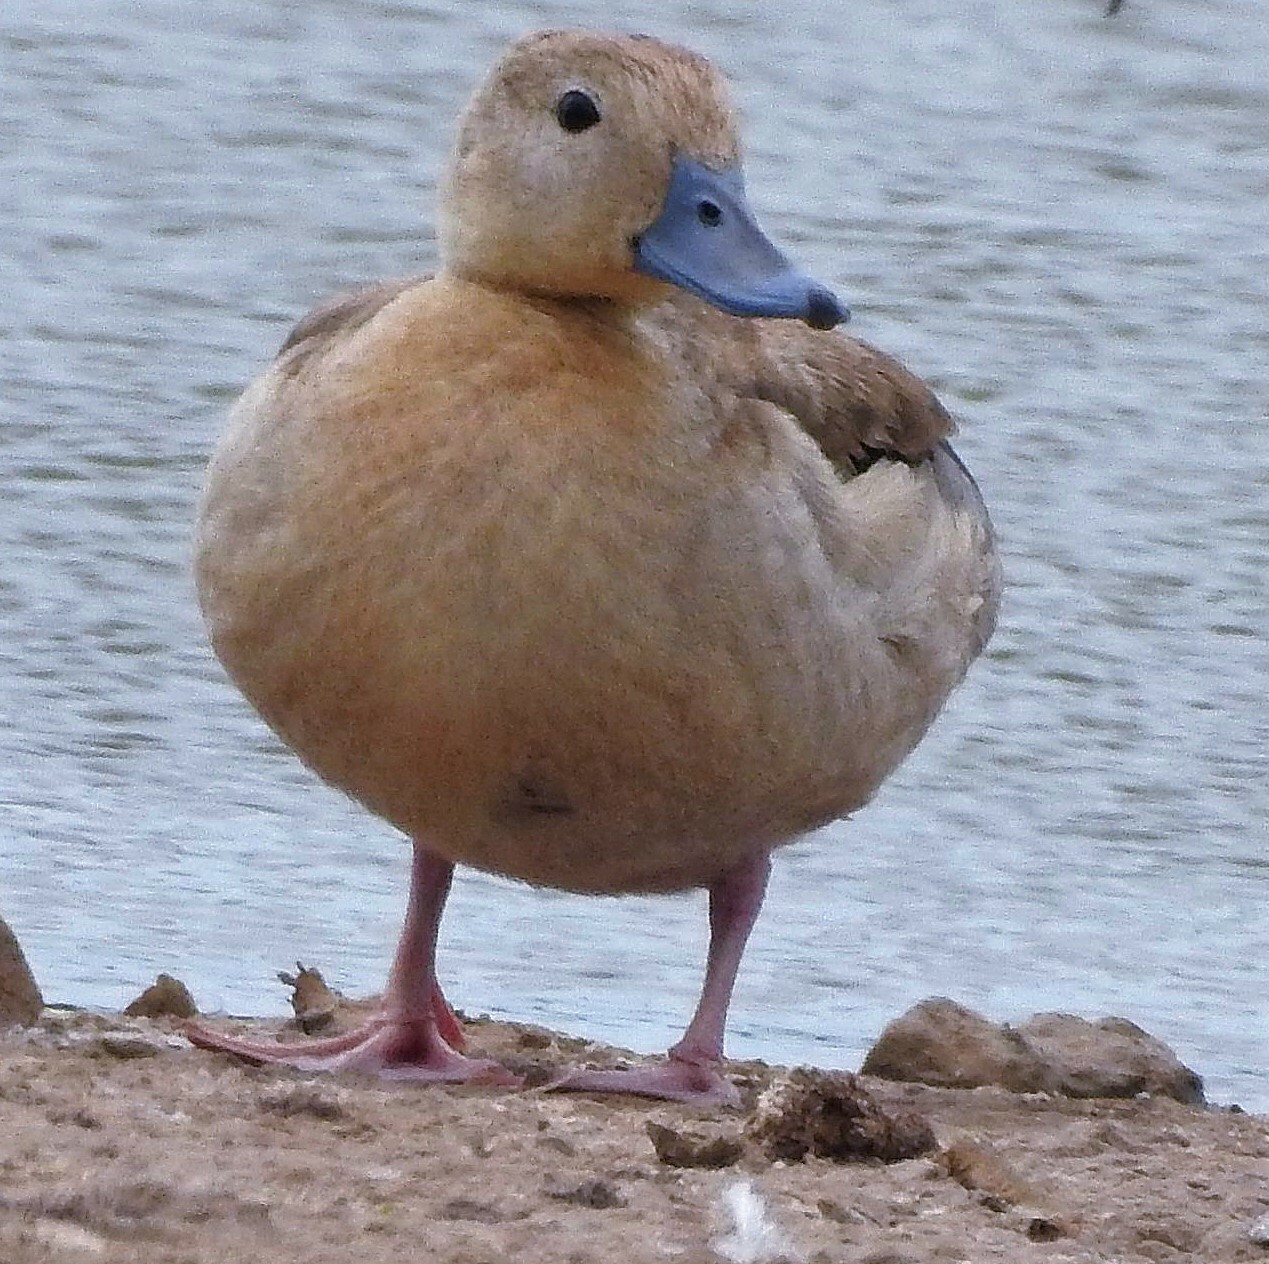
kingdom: Animalia
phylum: Chordata
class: Aves
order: Anseriformes
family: Anatidae
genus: Callonetta
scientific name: Callonetta leucophrys
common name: Ringed teal
